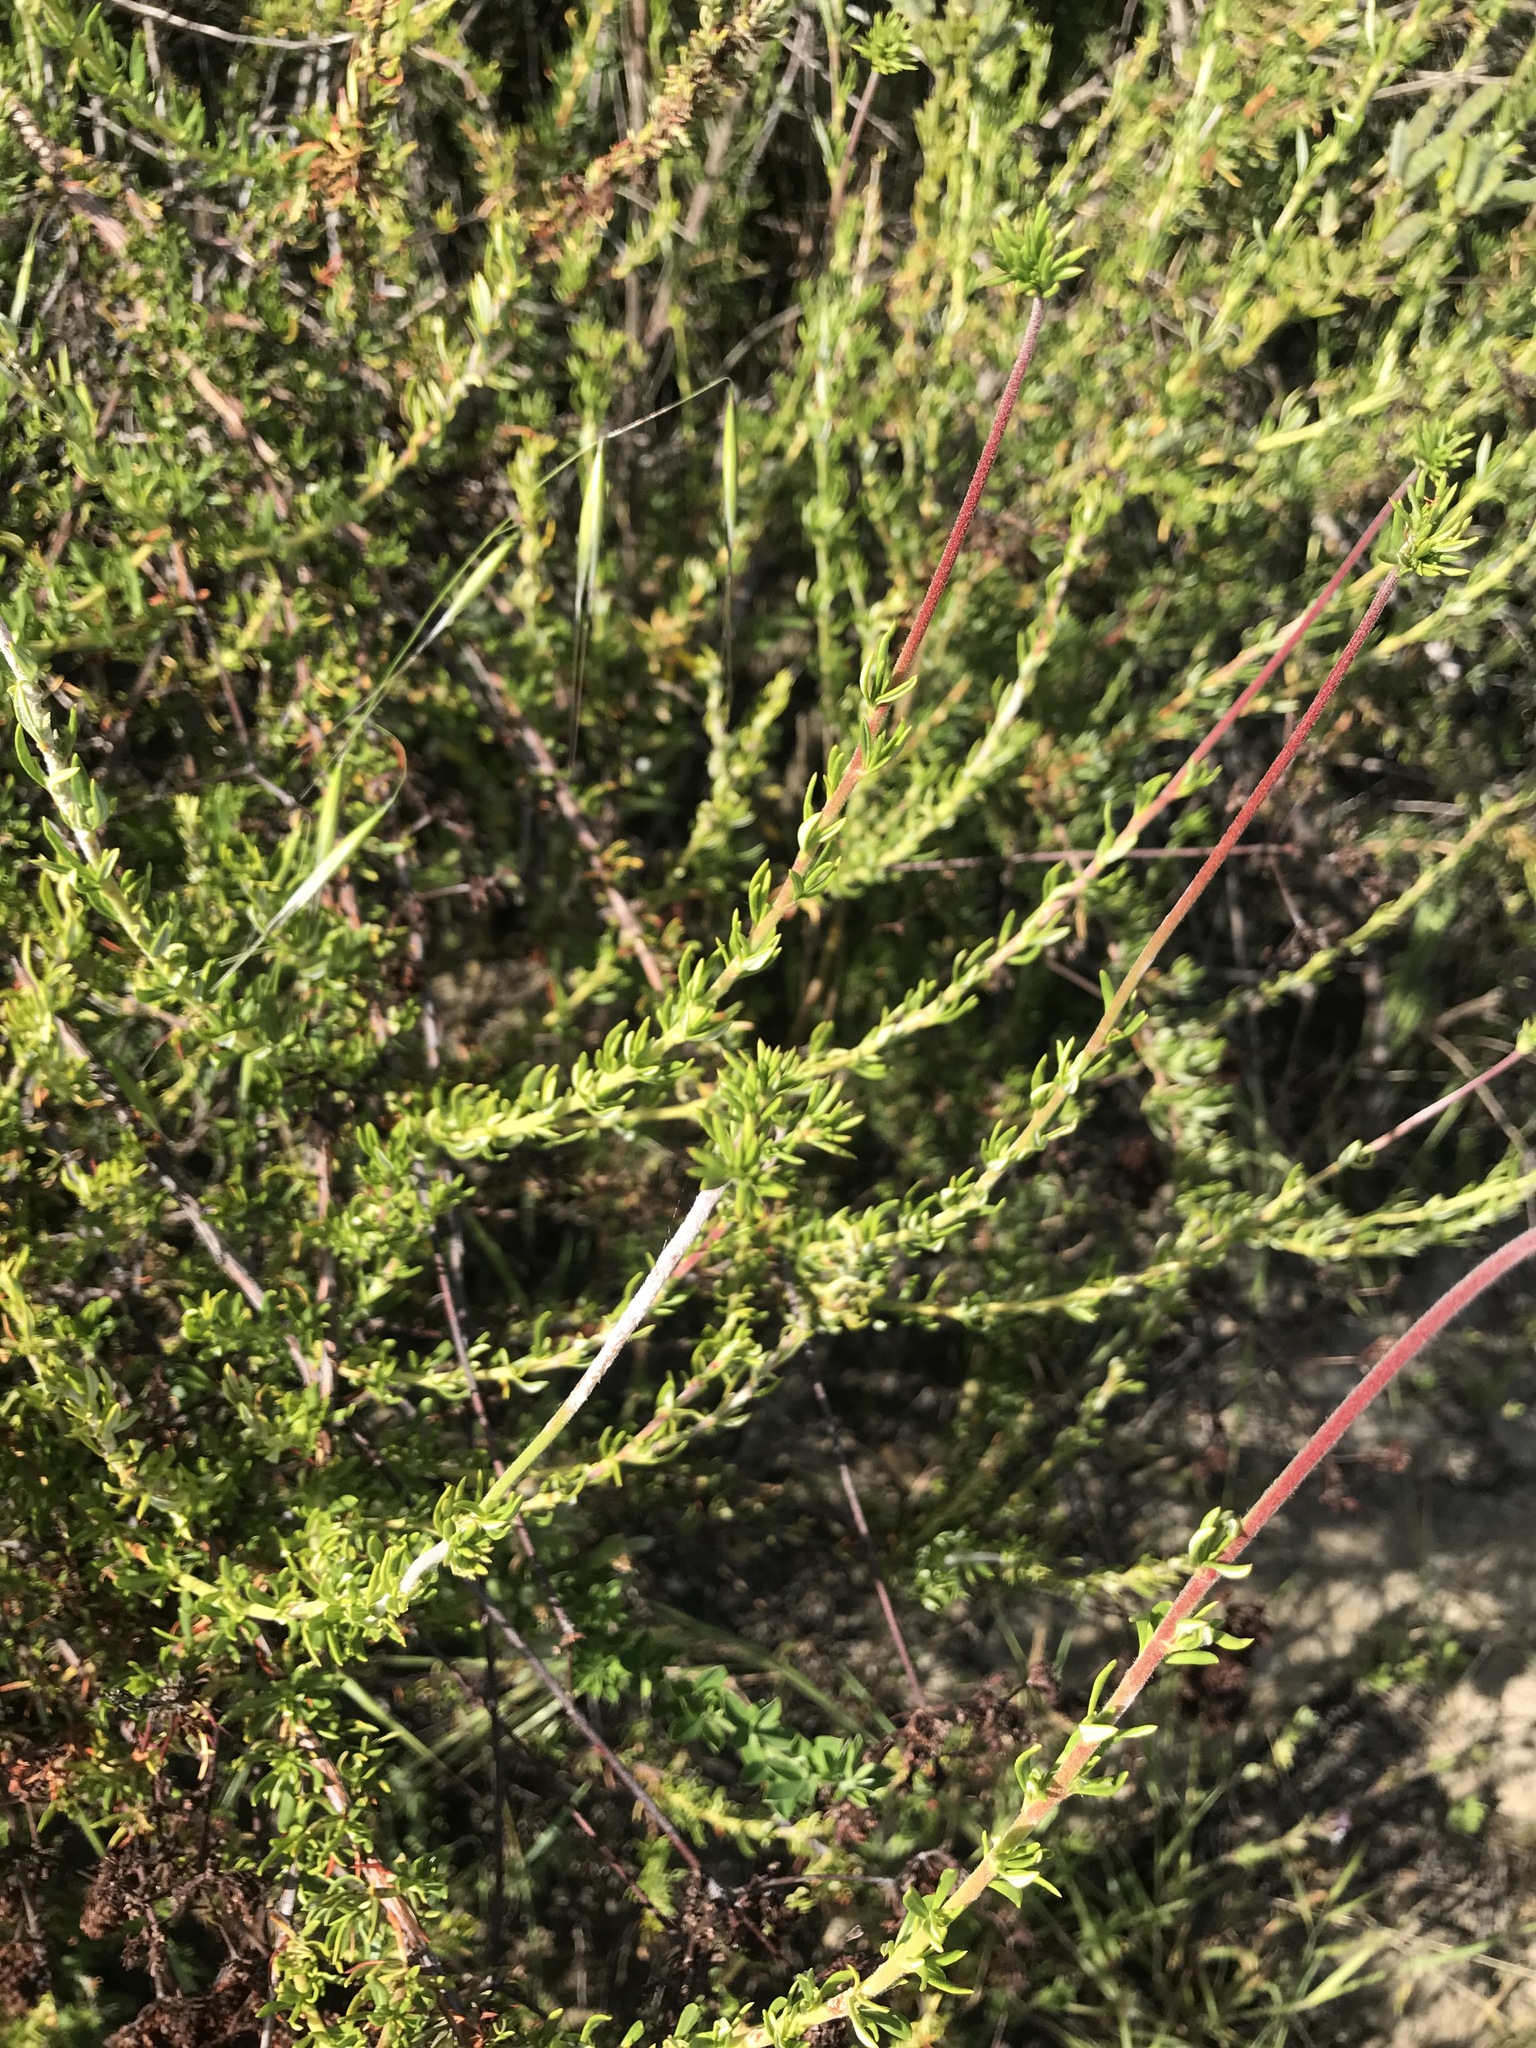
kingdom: Plantae
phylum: Tracheophyta
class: Magnoliopsida
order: Caryophyllales
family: Polygonaceae
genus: Eriogonum
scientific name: Eriogonum fasciculatum
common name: California wild buckwheat
